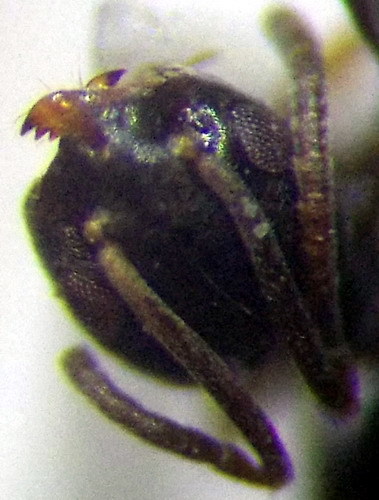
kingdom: Animalia
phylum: Arthropoda
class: Insecta
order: Hymenoptera
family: Formicidae
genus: Tapinoma
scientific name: Tapinoma erraticum
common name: Erratic ant
